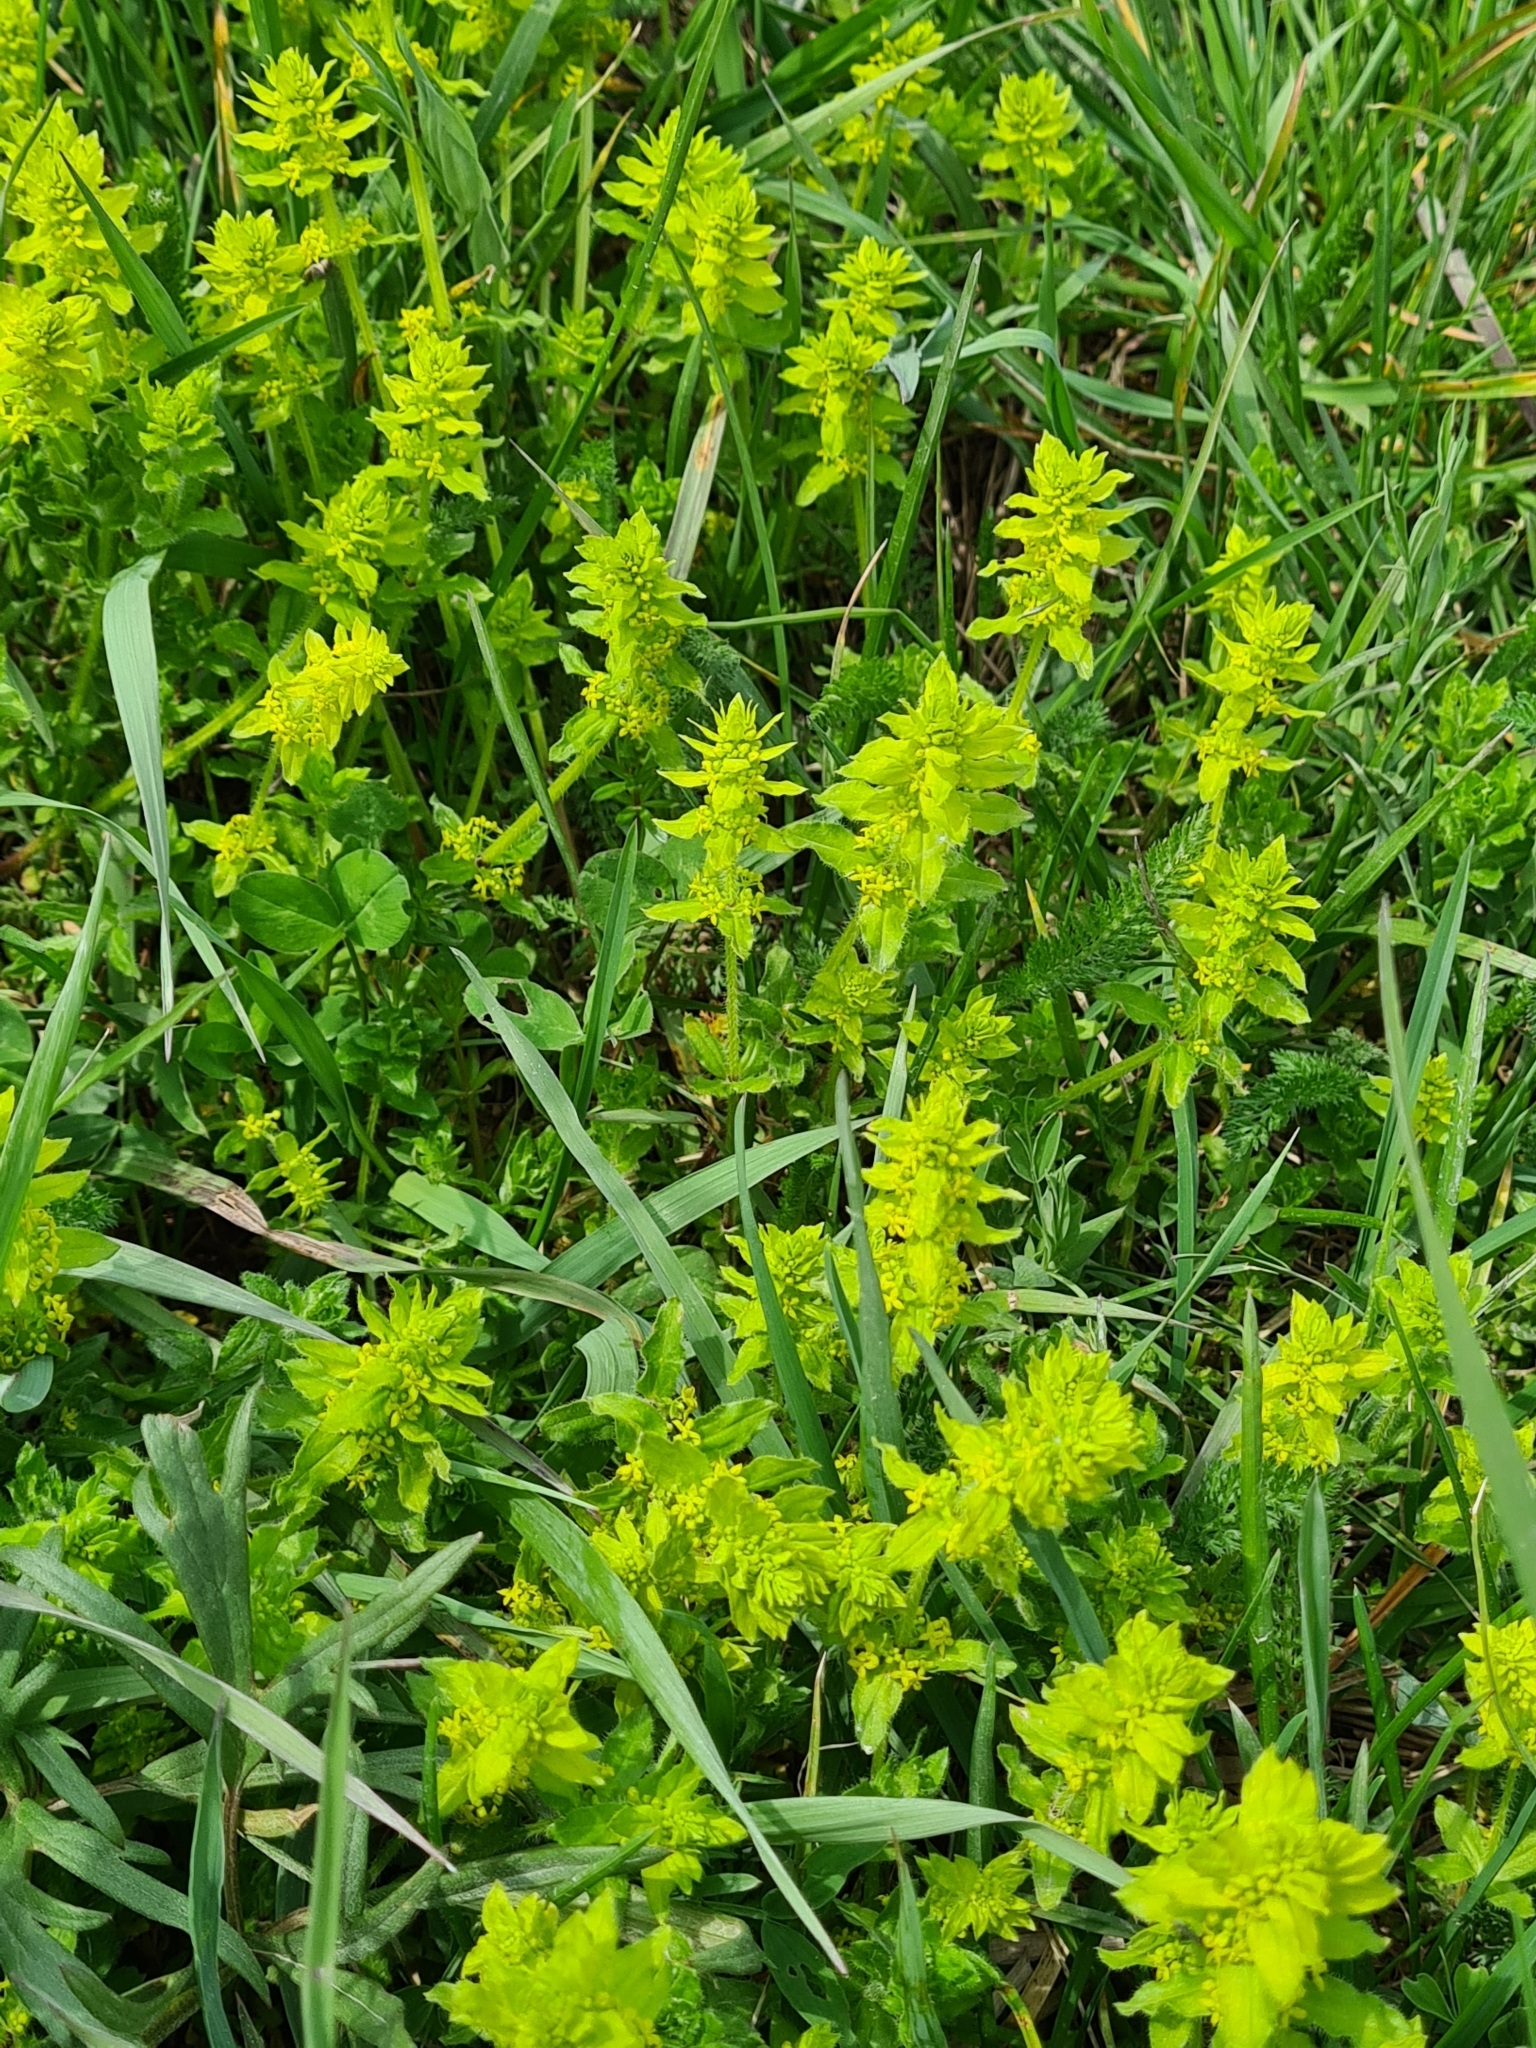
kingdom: Plantae
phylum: Tracheophyta
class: Magnoliopsida
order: Gentianales
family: Rubiaceae
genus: Cruciata
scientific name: Cruciata laevipes
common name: Crosswort
